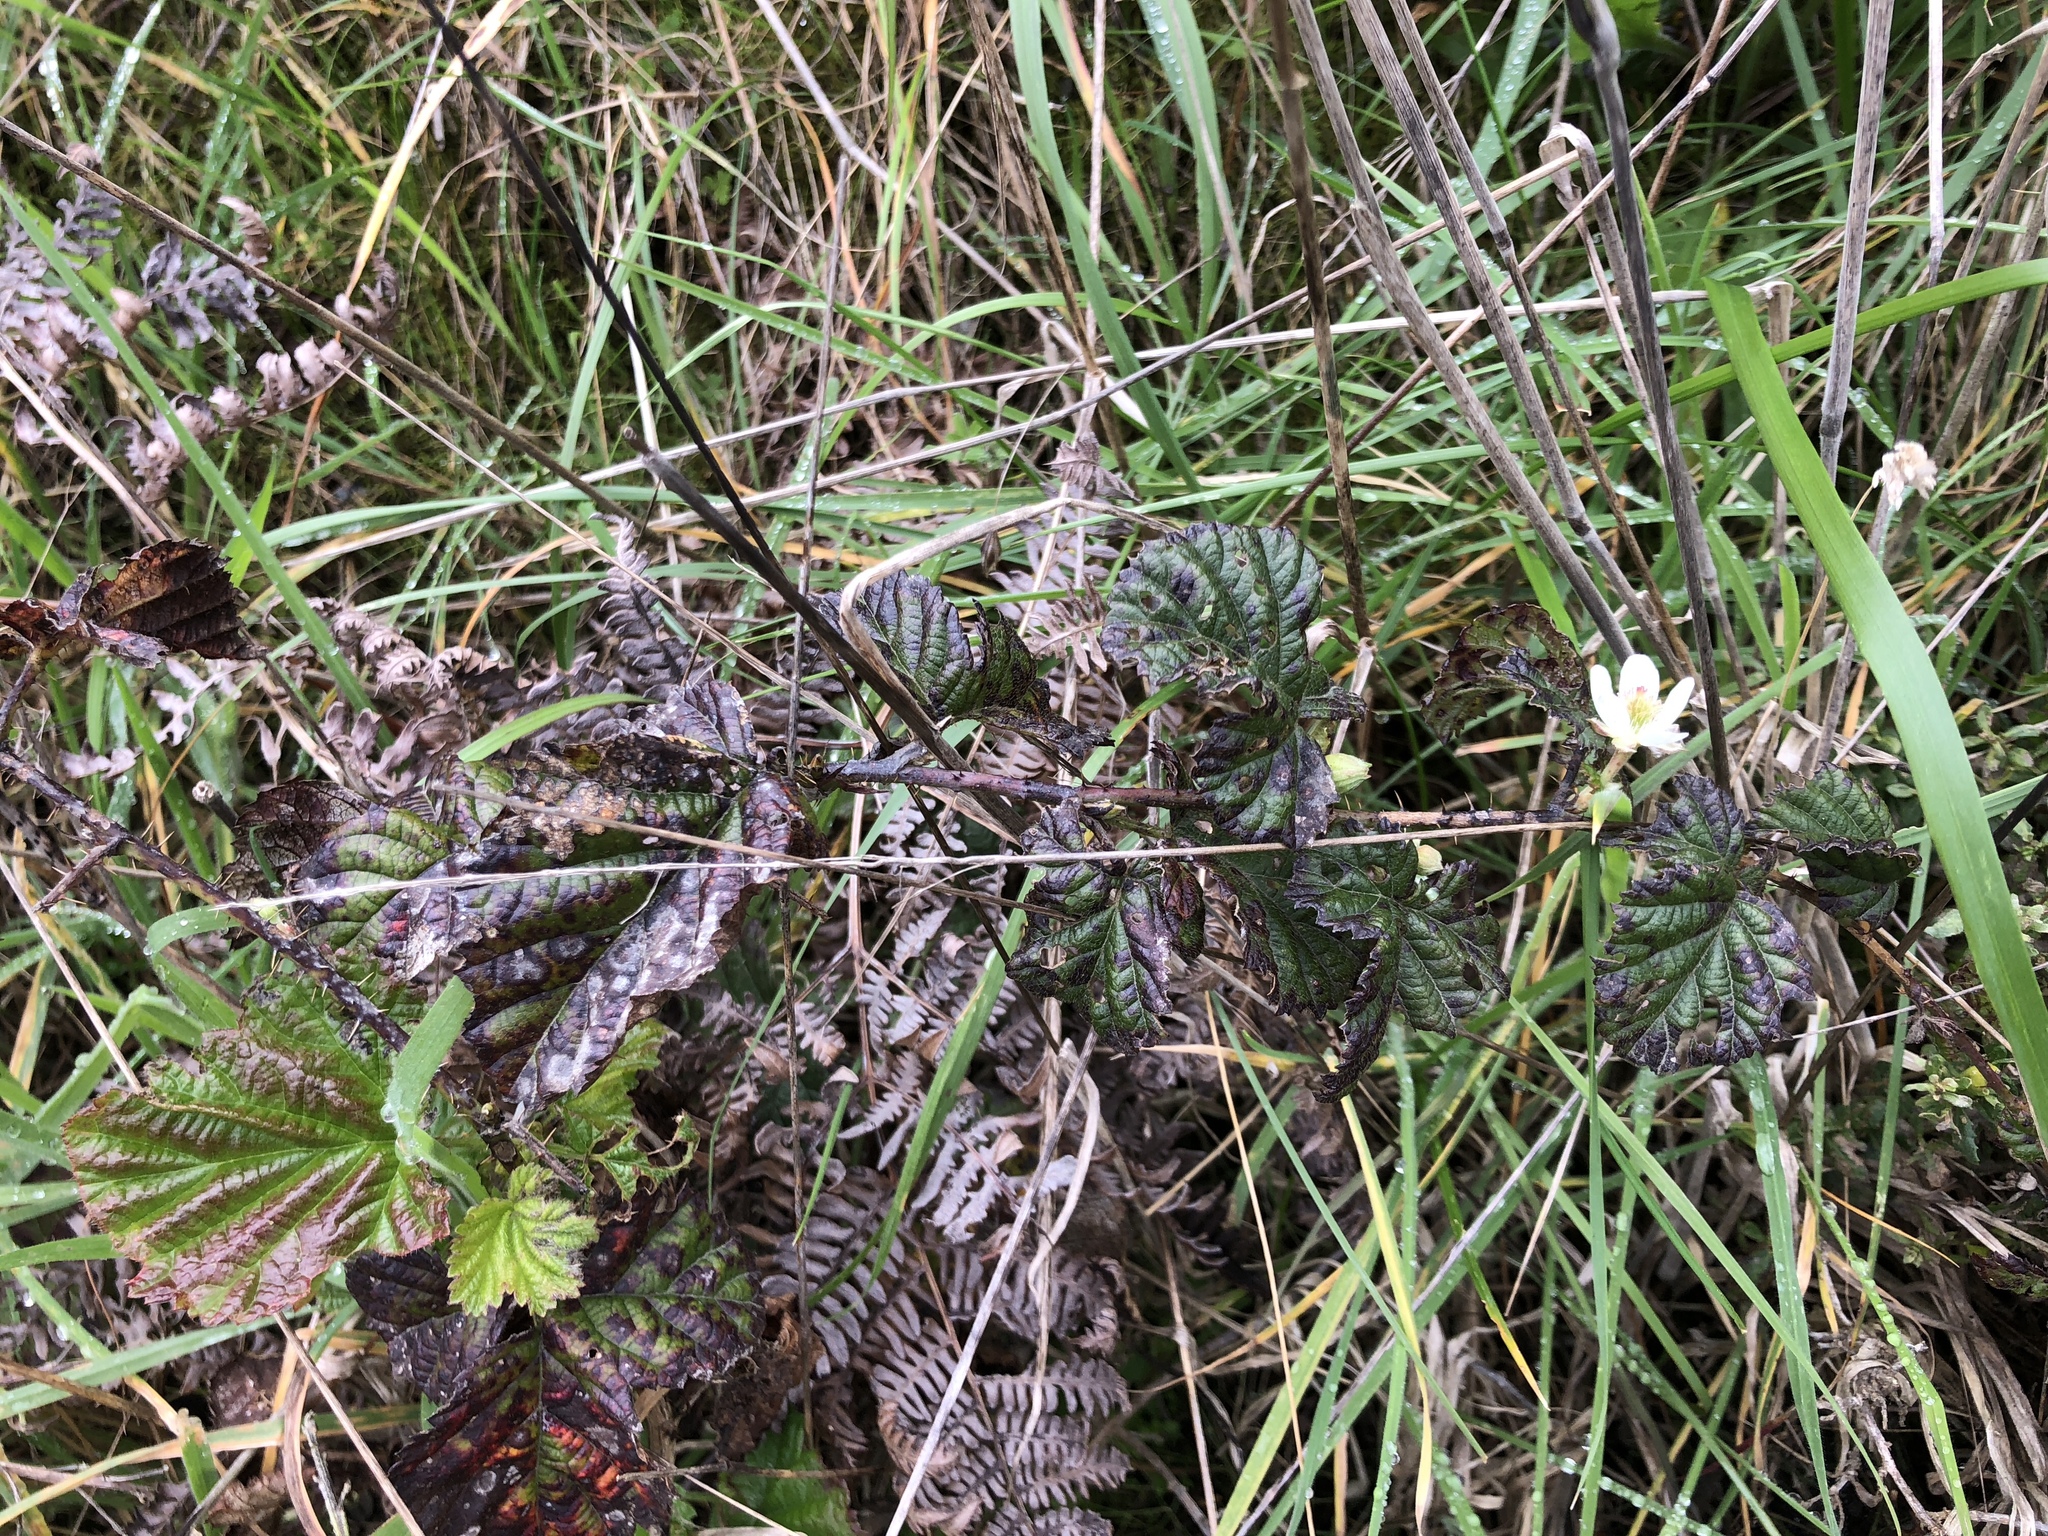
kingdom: Plantae
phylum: Tracheophyta
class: Magnoliopsida
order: Rosales
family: Rosaceae
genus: Rubus
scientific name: Rubus ursinus
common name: Pacific blackberry
